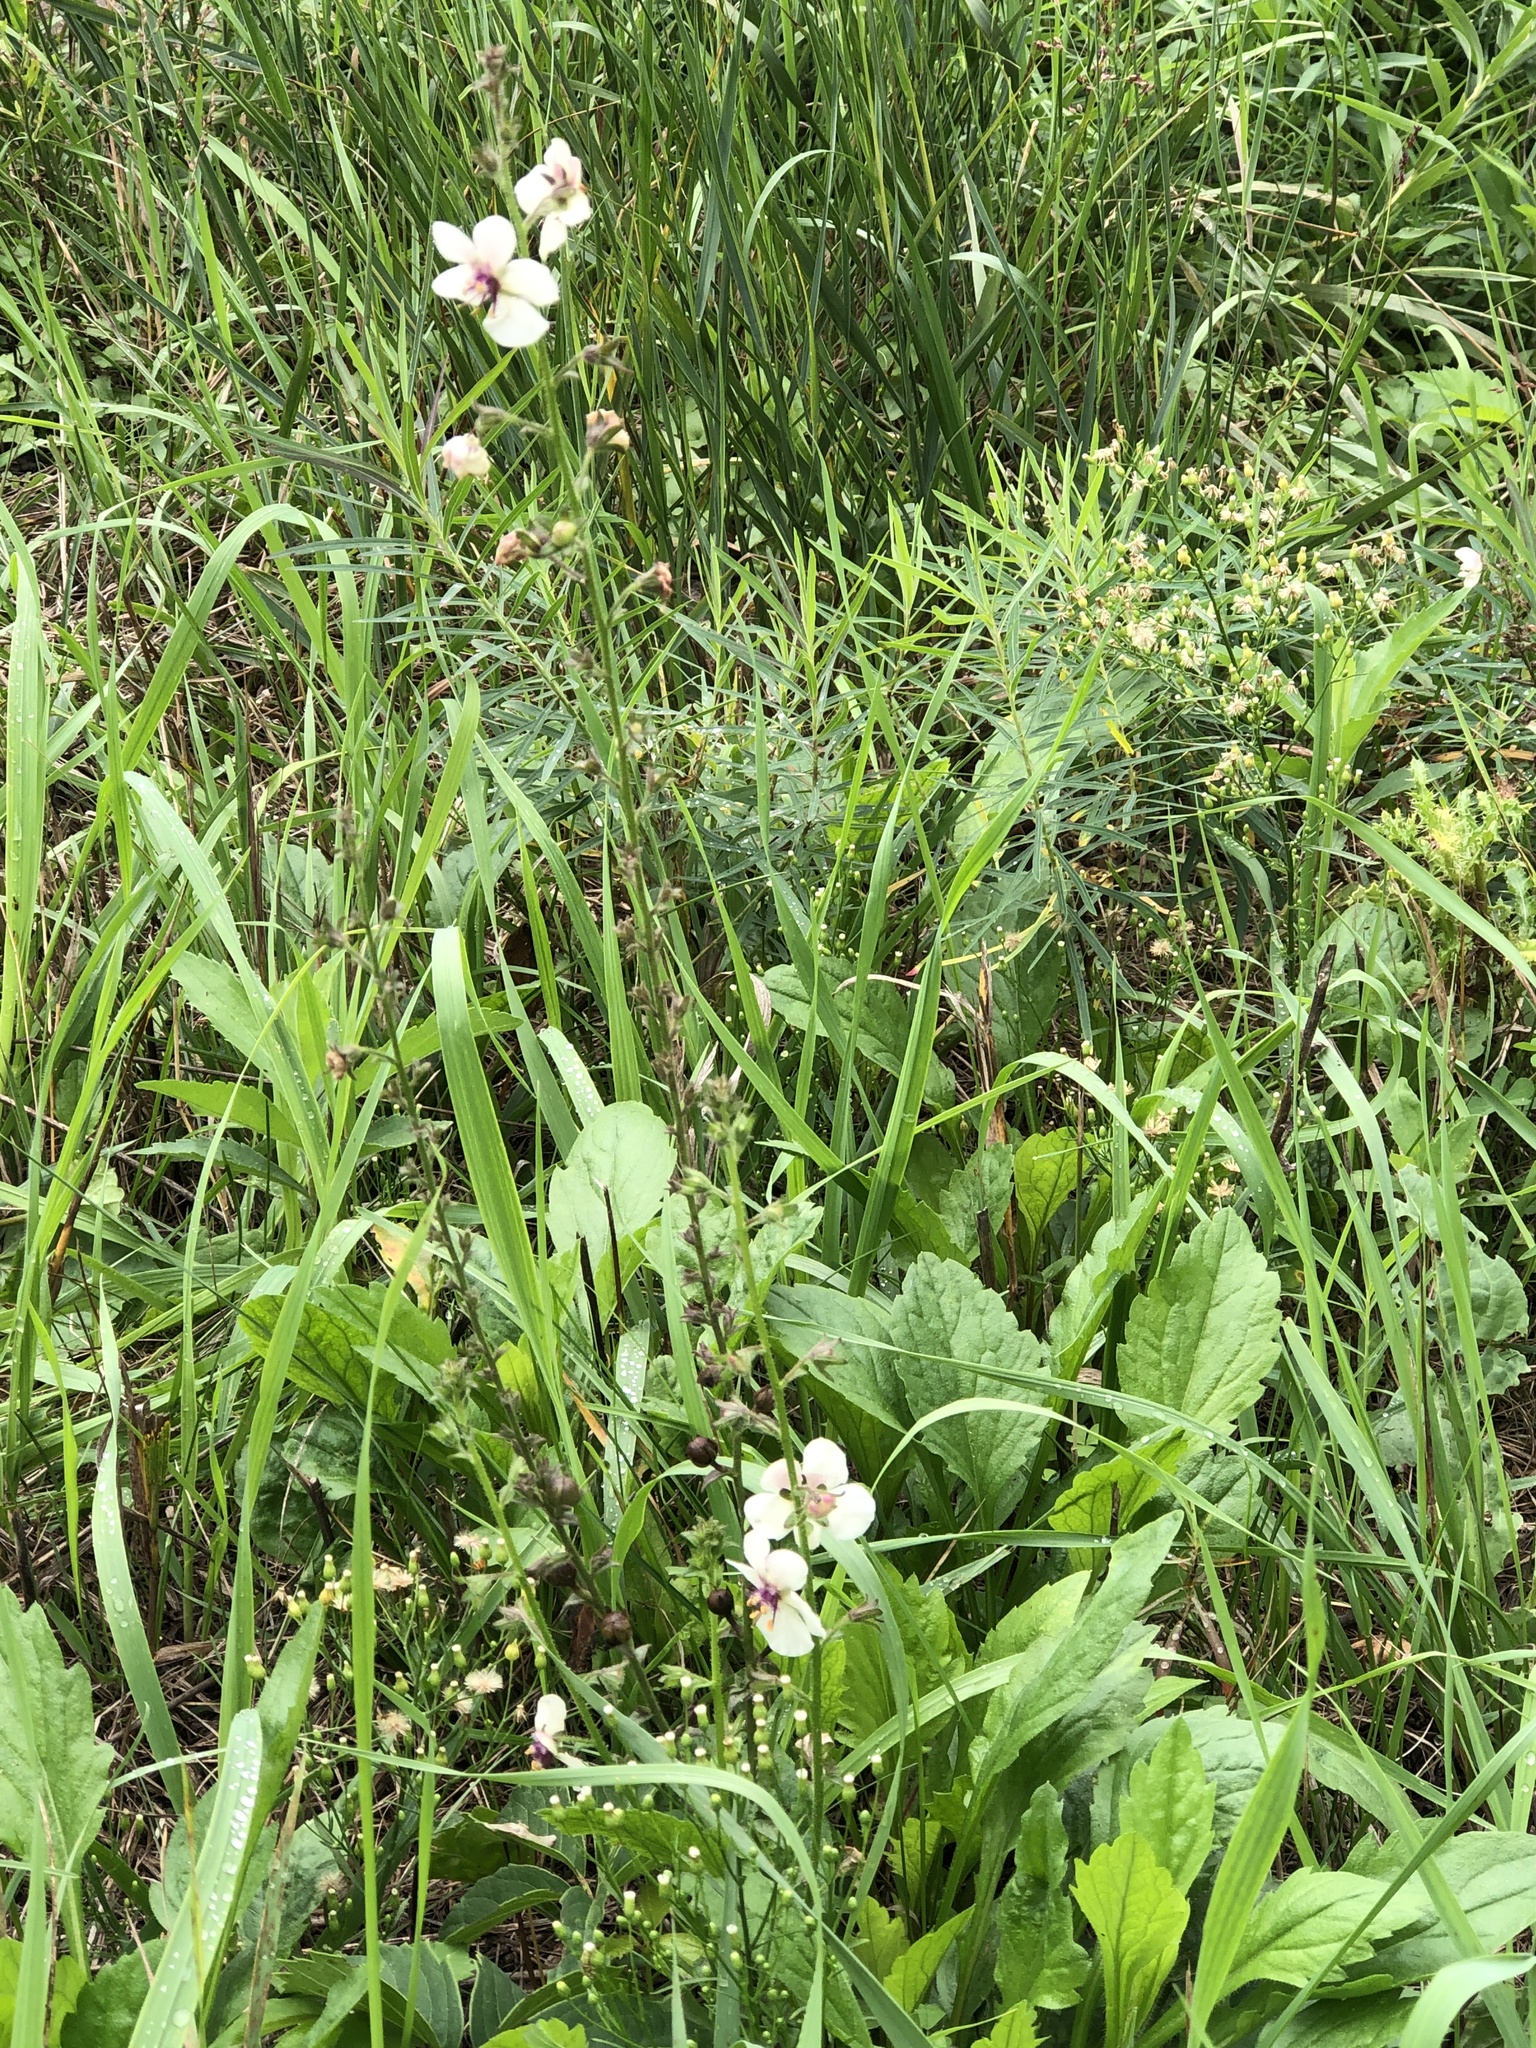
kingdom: Plantae
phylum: Tracheophyta
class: Magnoliopsida
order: Lamiales
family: Scrophulariaceae
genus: Verbascum
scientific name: Verbascum blattaria
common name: Moth mullein
